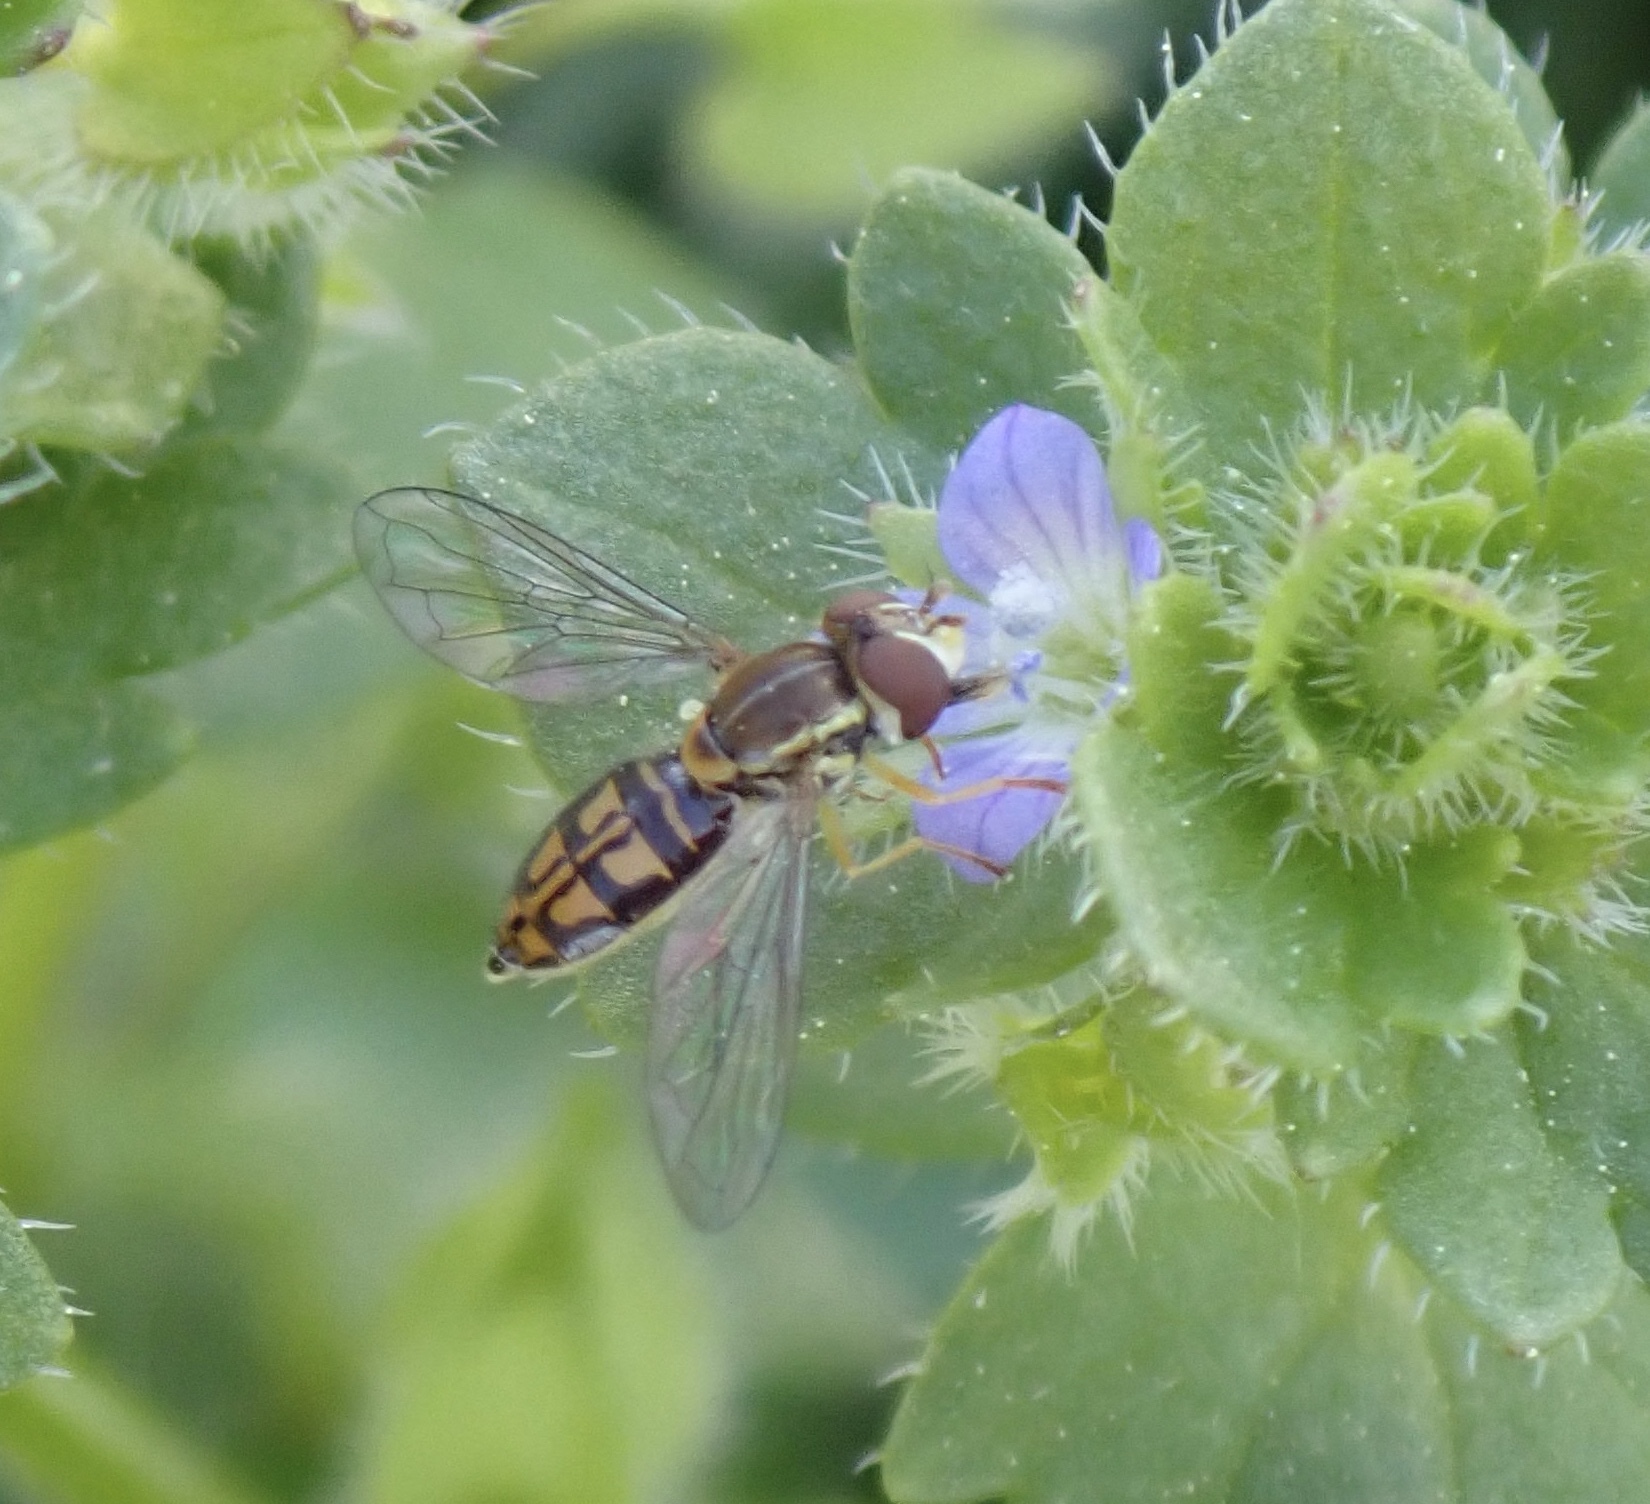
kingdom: Animalia
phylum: Arthropoda
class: Insecta
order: Diptera
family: Syrphidae
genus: Toxomerus
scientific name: Toxomerus marginatus
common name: Syrphid fly
